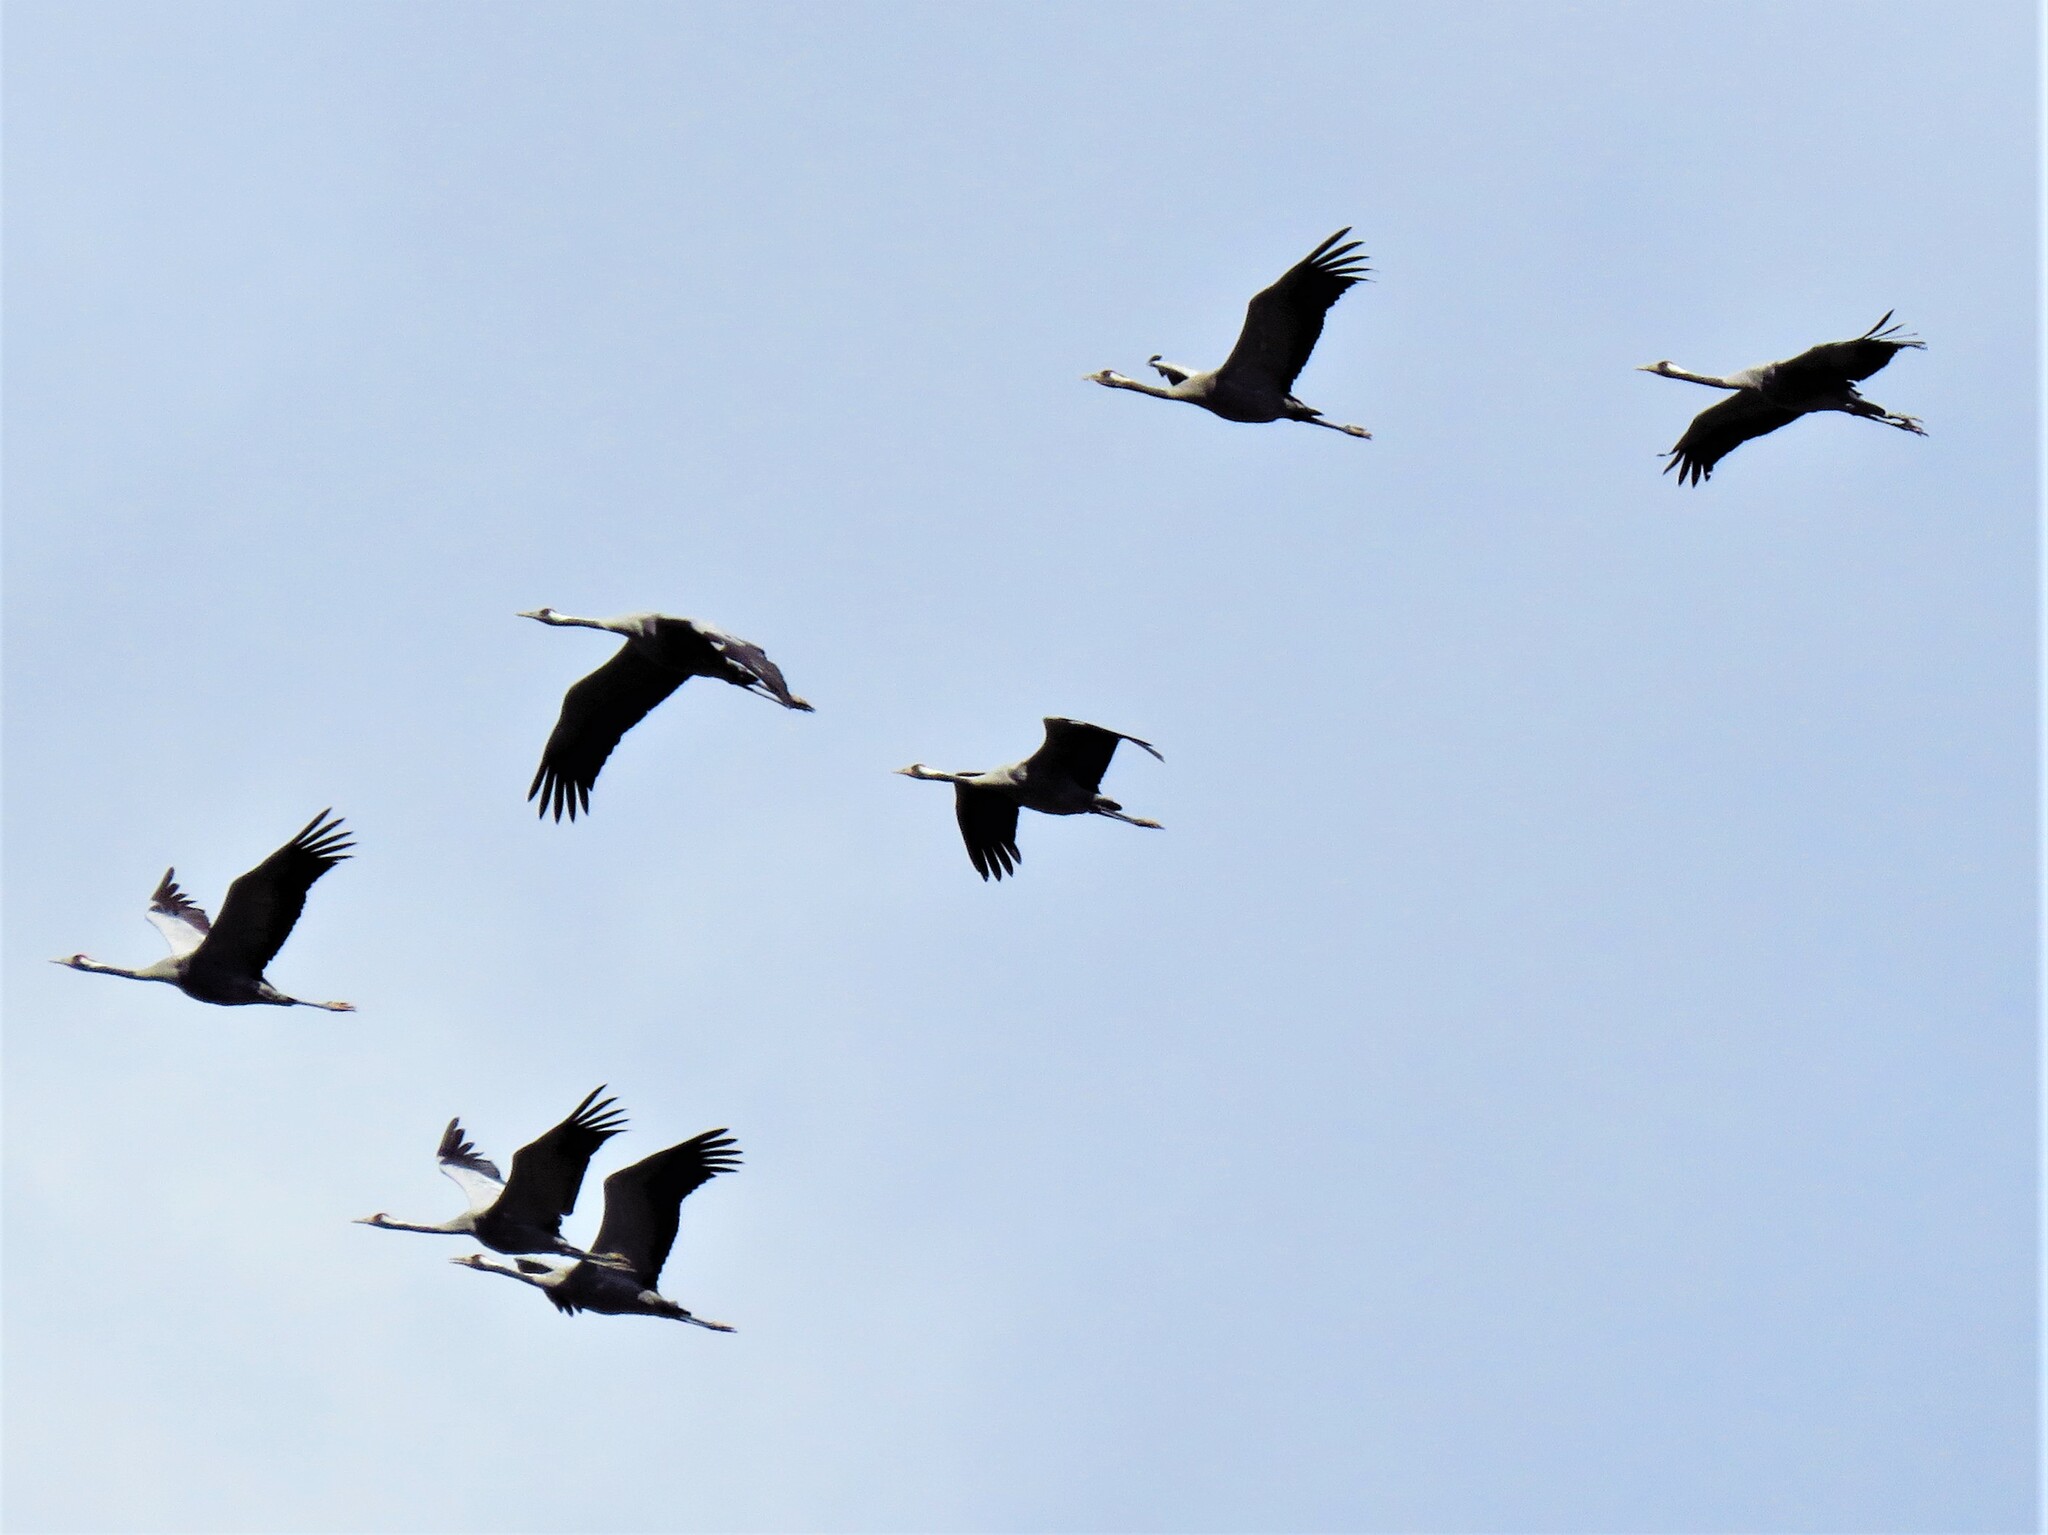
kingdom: Animalia
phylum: Chordata
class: Aves
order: Gruiformes
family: Gruidae
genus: Grus
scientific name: Grus grus
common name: Common crane
